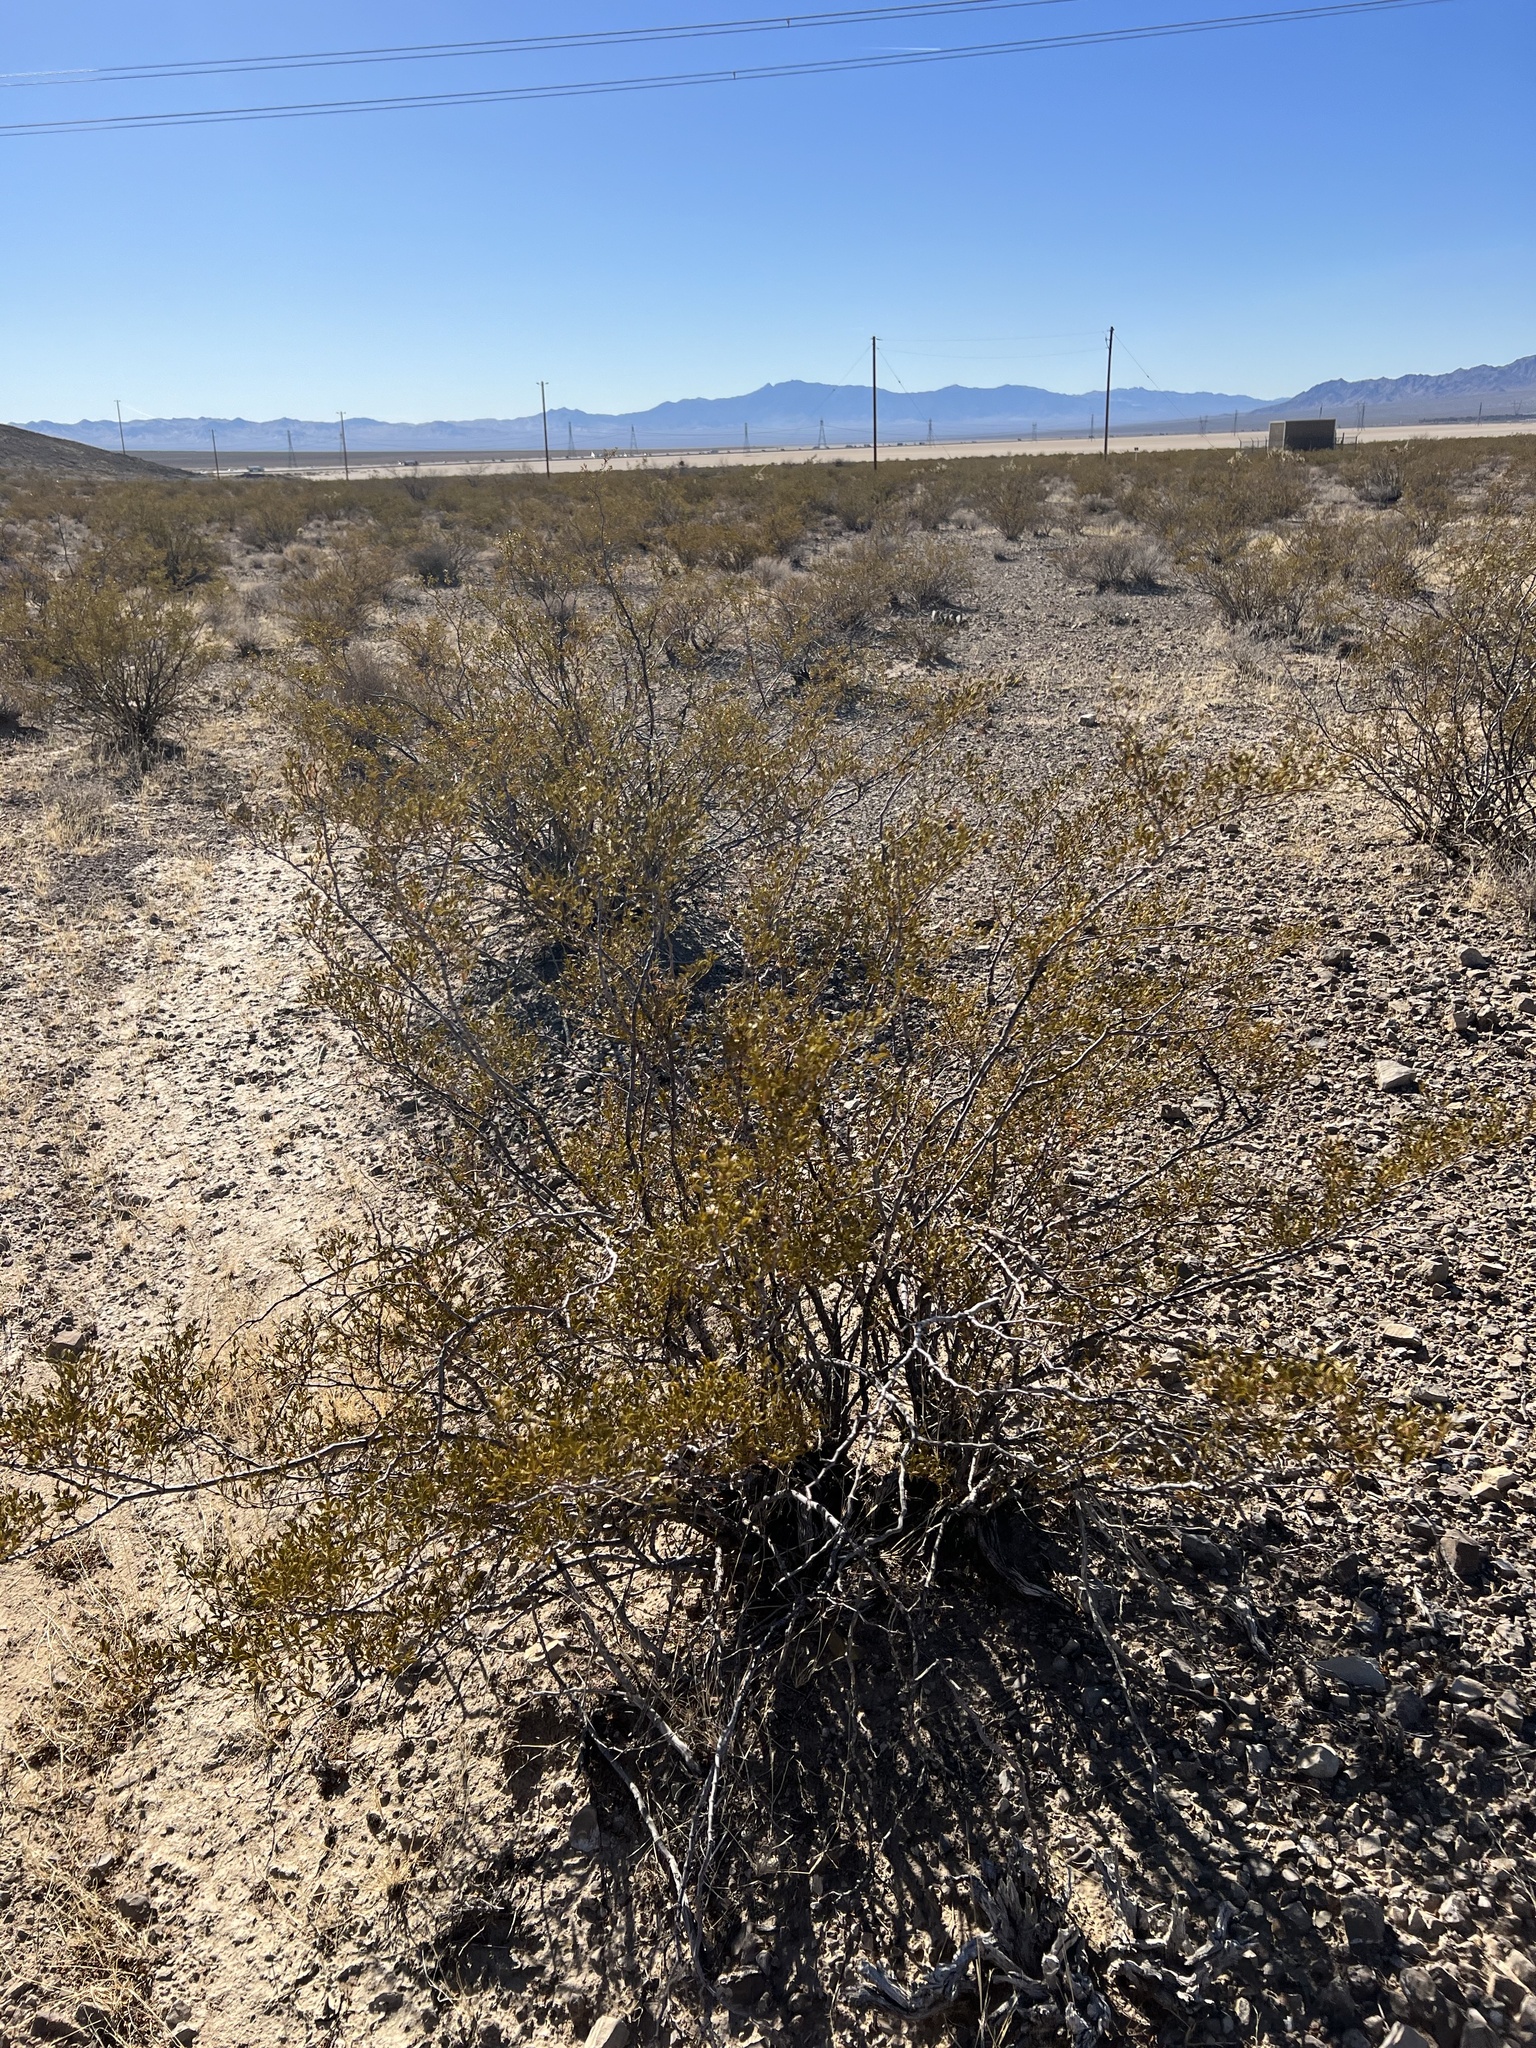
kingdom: Plantae
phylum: Tracheophyta
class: Magnoliopsida
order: Zygophyllales
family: Zygophyllaceae
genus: Larrea
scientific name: Larrea tridentata
